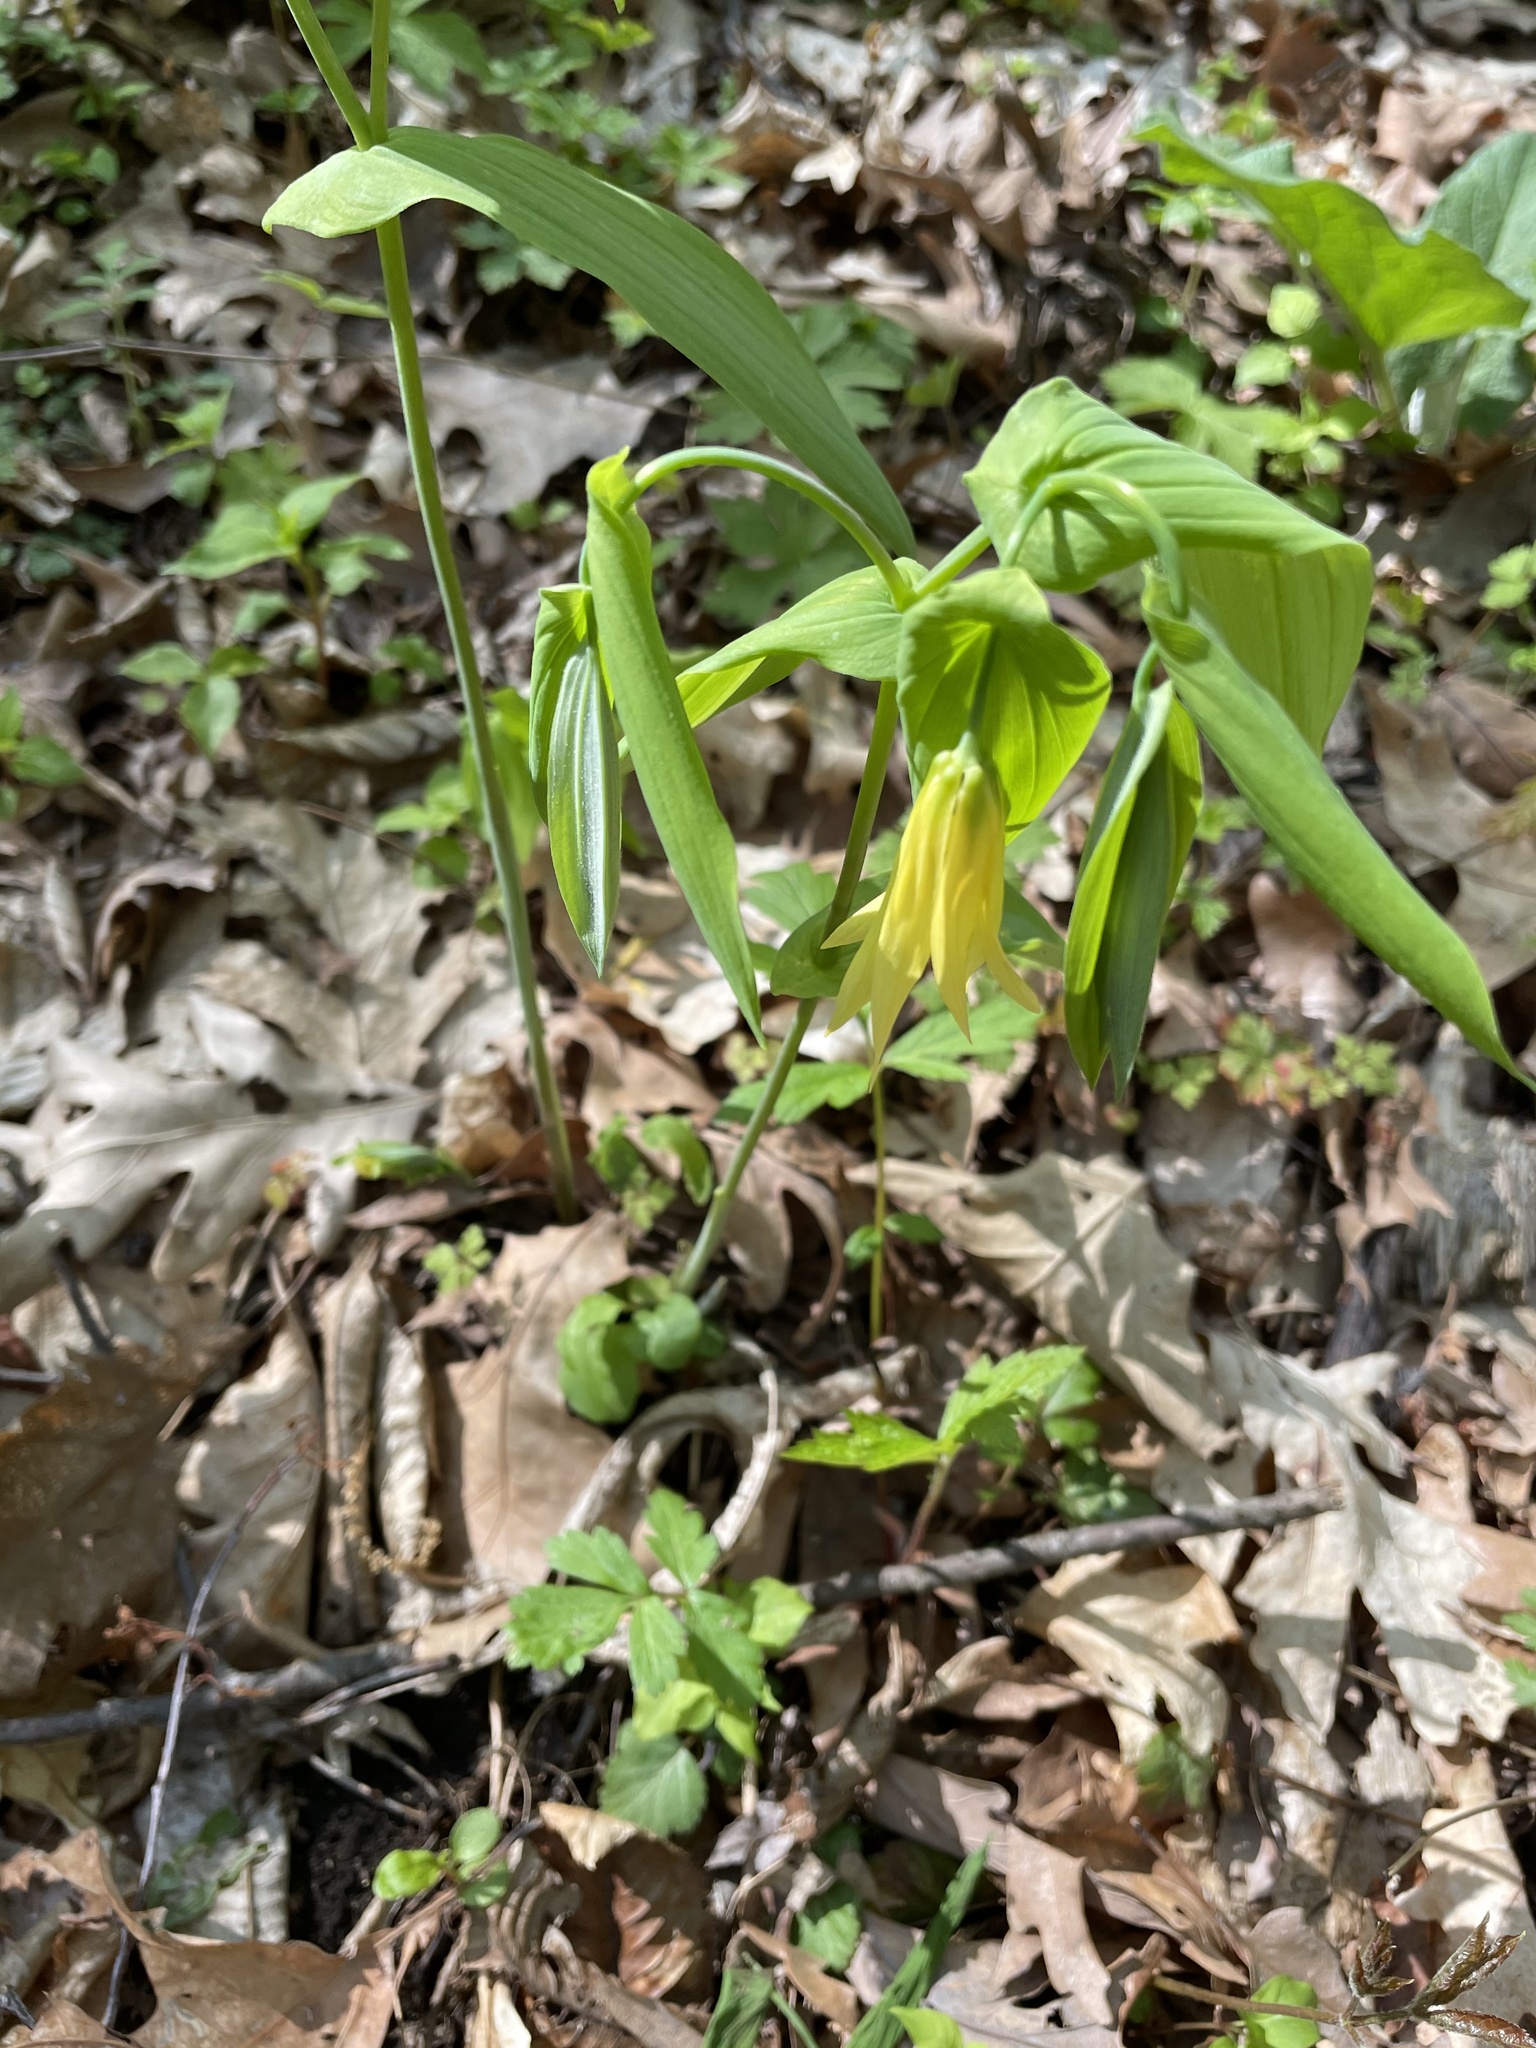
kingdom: Plantae
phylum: Tracheophyta
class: Liliopsida
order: Liliales
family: Colchicaceae
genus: Uvularia
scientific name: Uvularia grandiflora
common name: Bellwort
